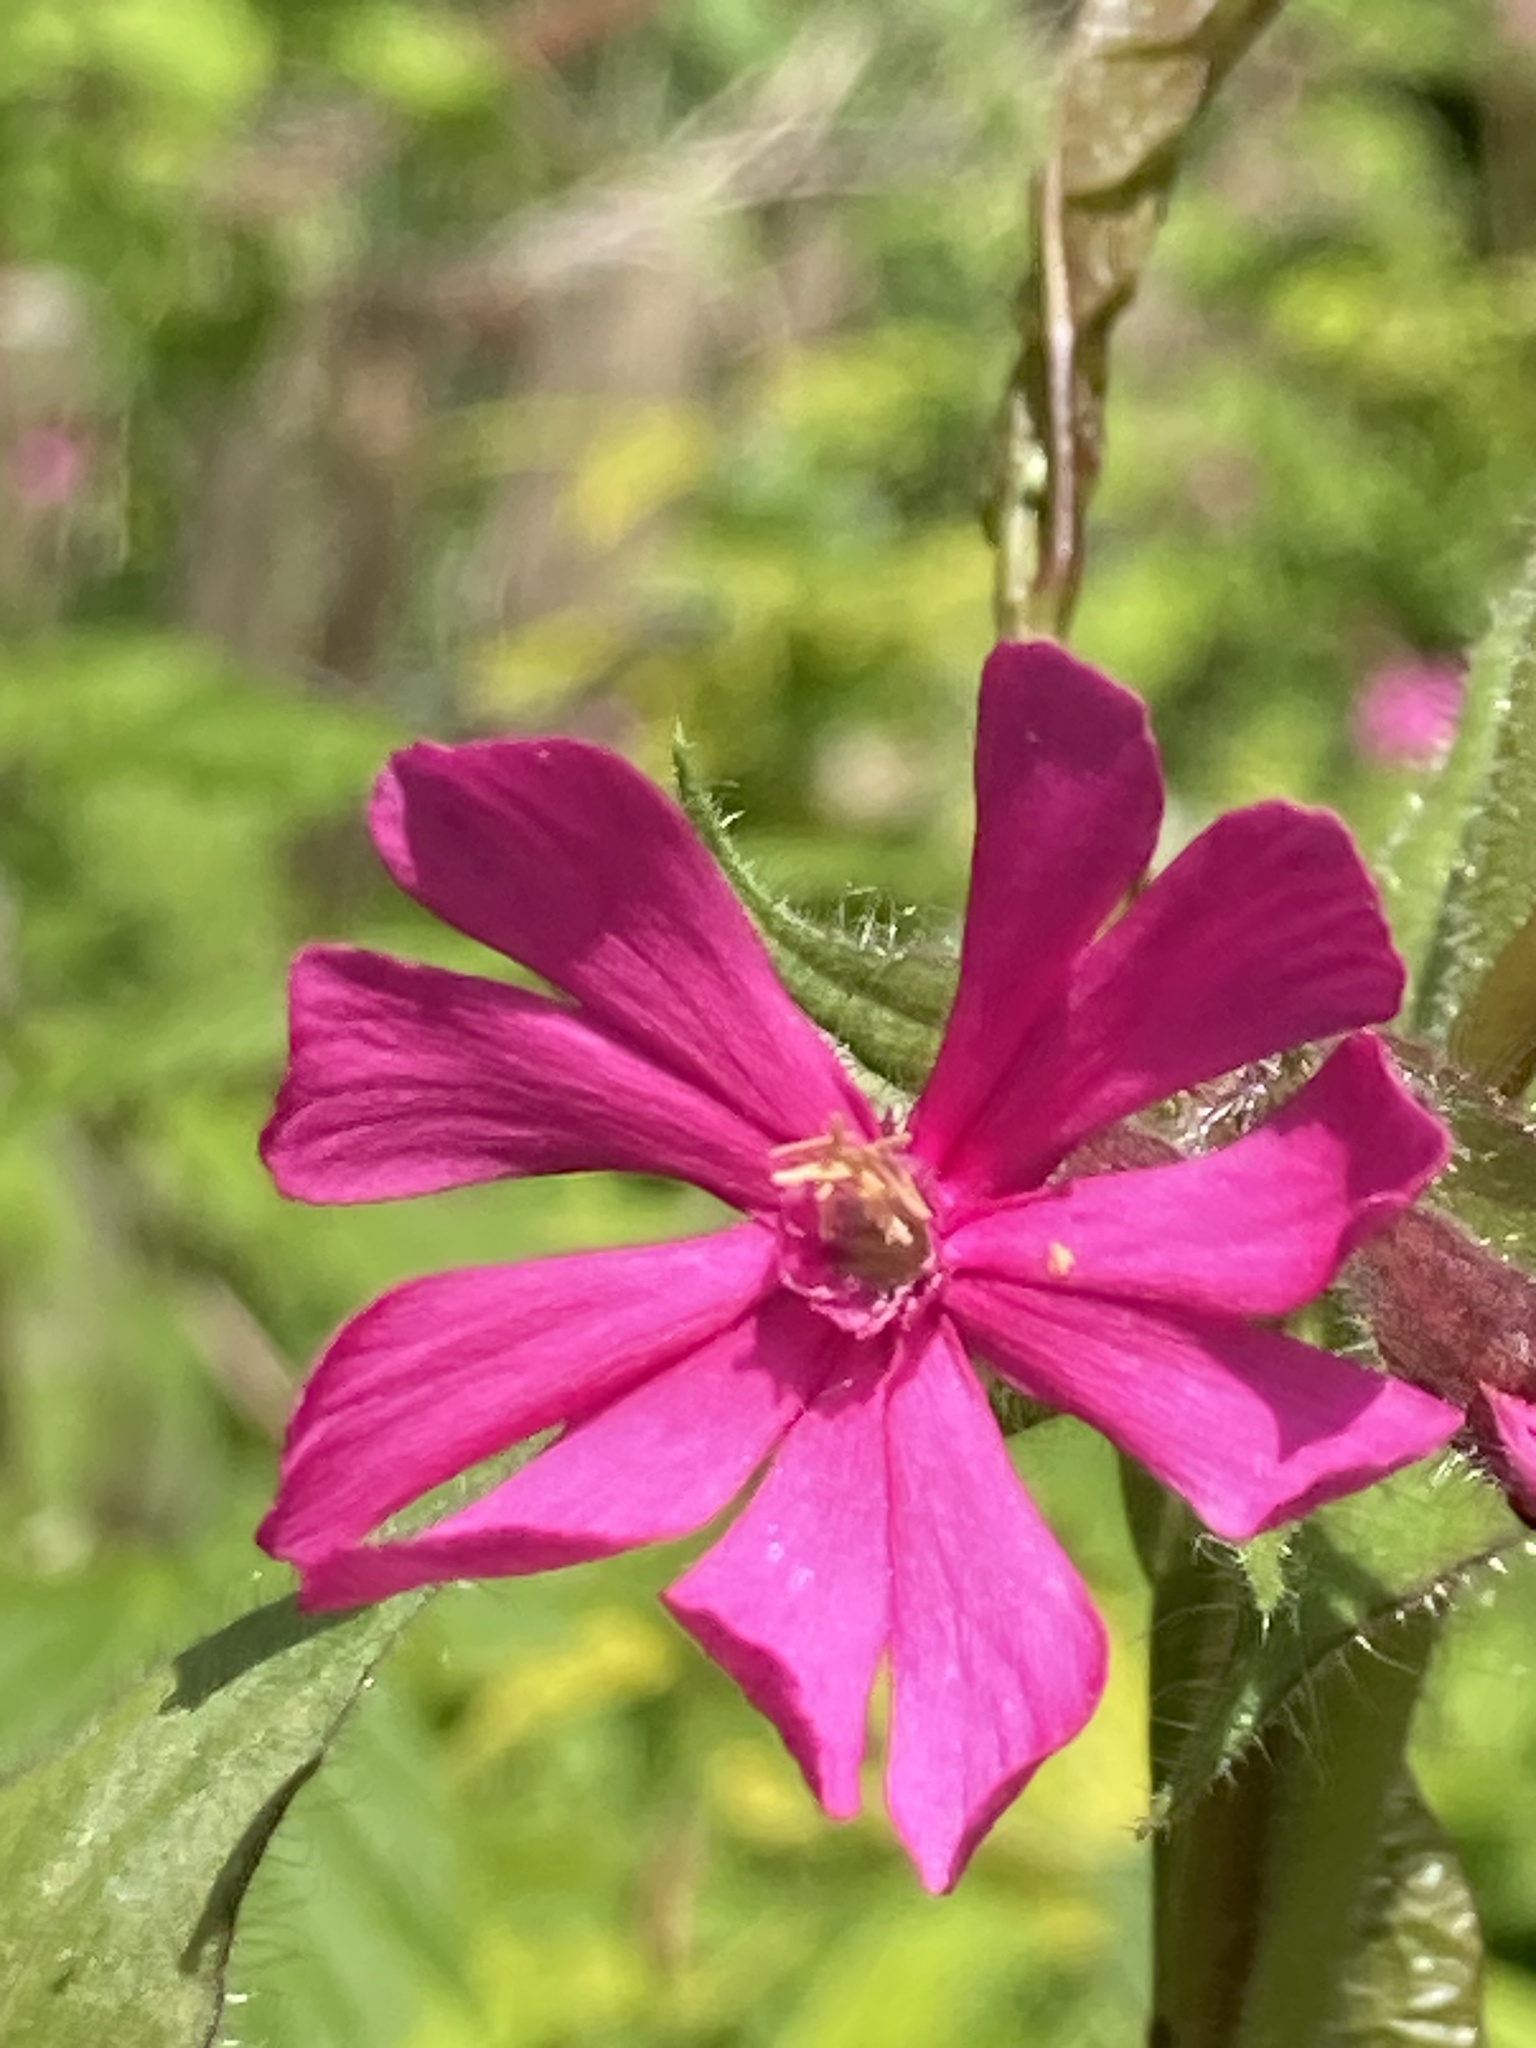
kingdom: Plantae
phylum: Tracheophyta
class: Magnoliopsida
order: Caryophyllales
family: Caryophyllaceae
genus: Silene
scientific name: Silene dioica
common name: Red campion
